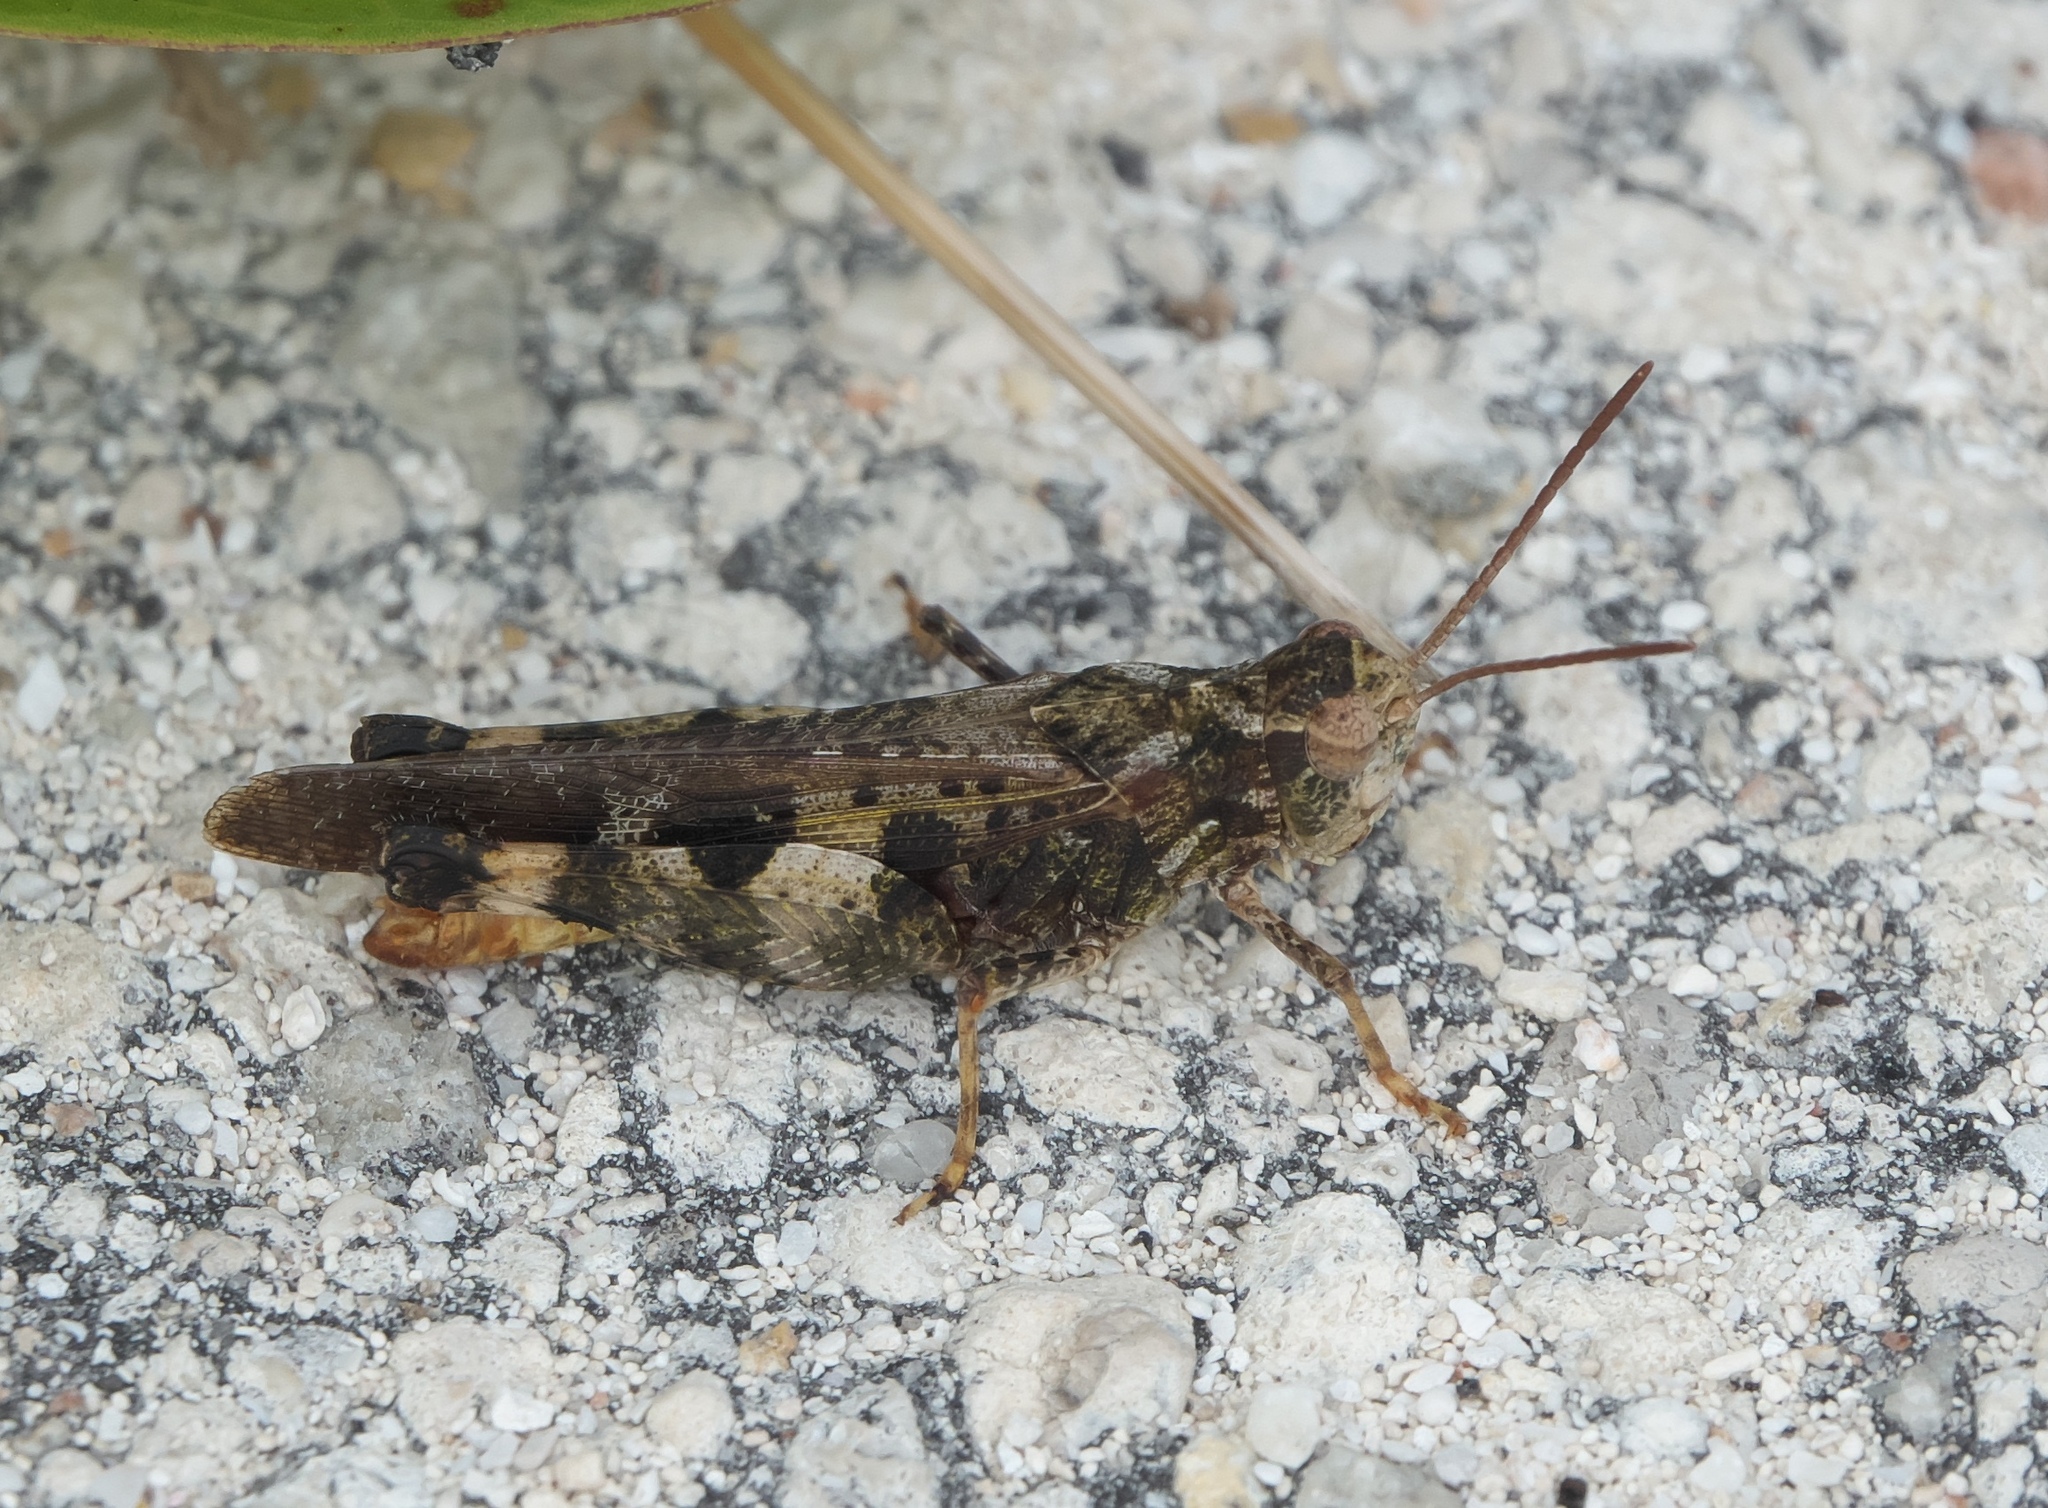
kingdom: Animalia
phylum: Arthropoda
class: Insecta
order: Orthoptera
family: Acrididae
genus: Chortophaga
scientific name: Chortophaga australior
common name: Southern green-striped grasshopper
